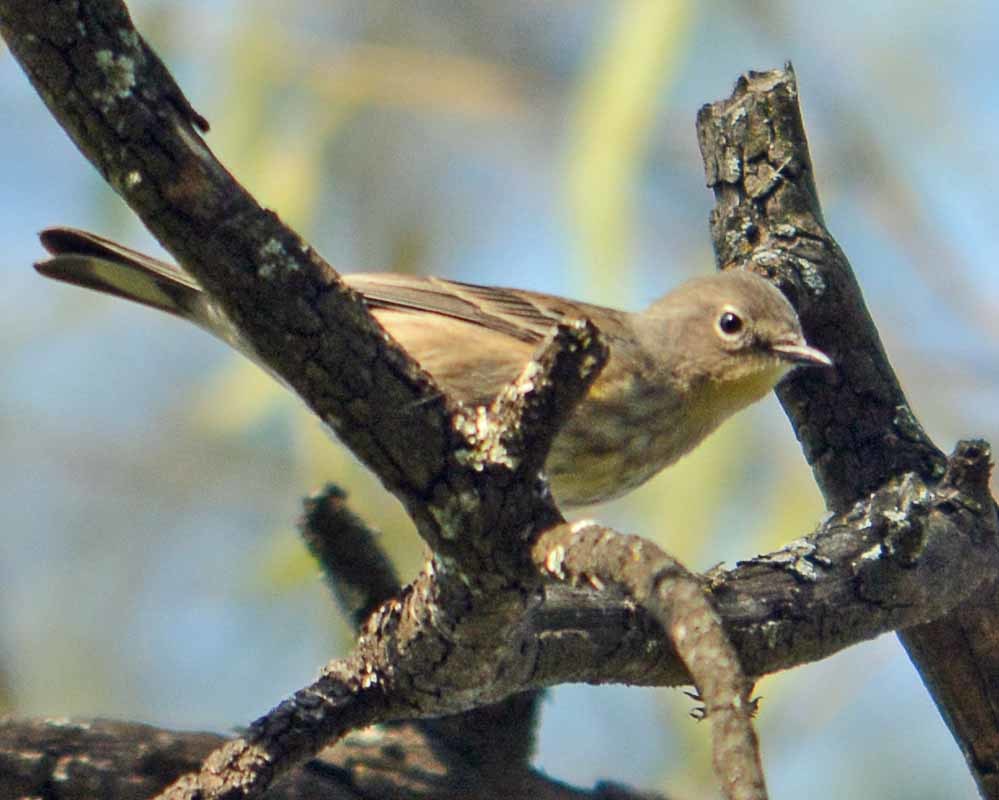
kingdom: Animalia
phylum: Chordata
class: Aves
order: Passeriformes
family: Parulidae
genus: Setophaga
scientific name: Setophaga auduboni
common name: Audubon's warbler
